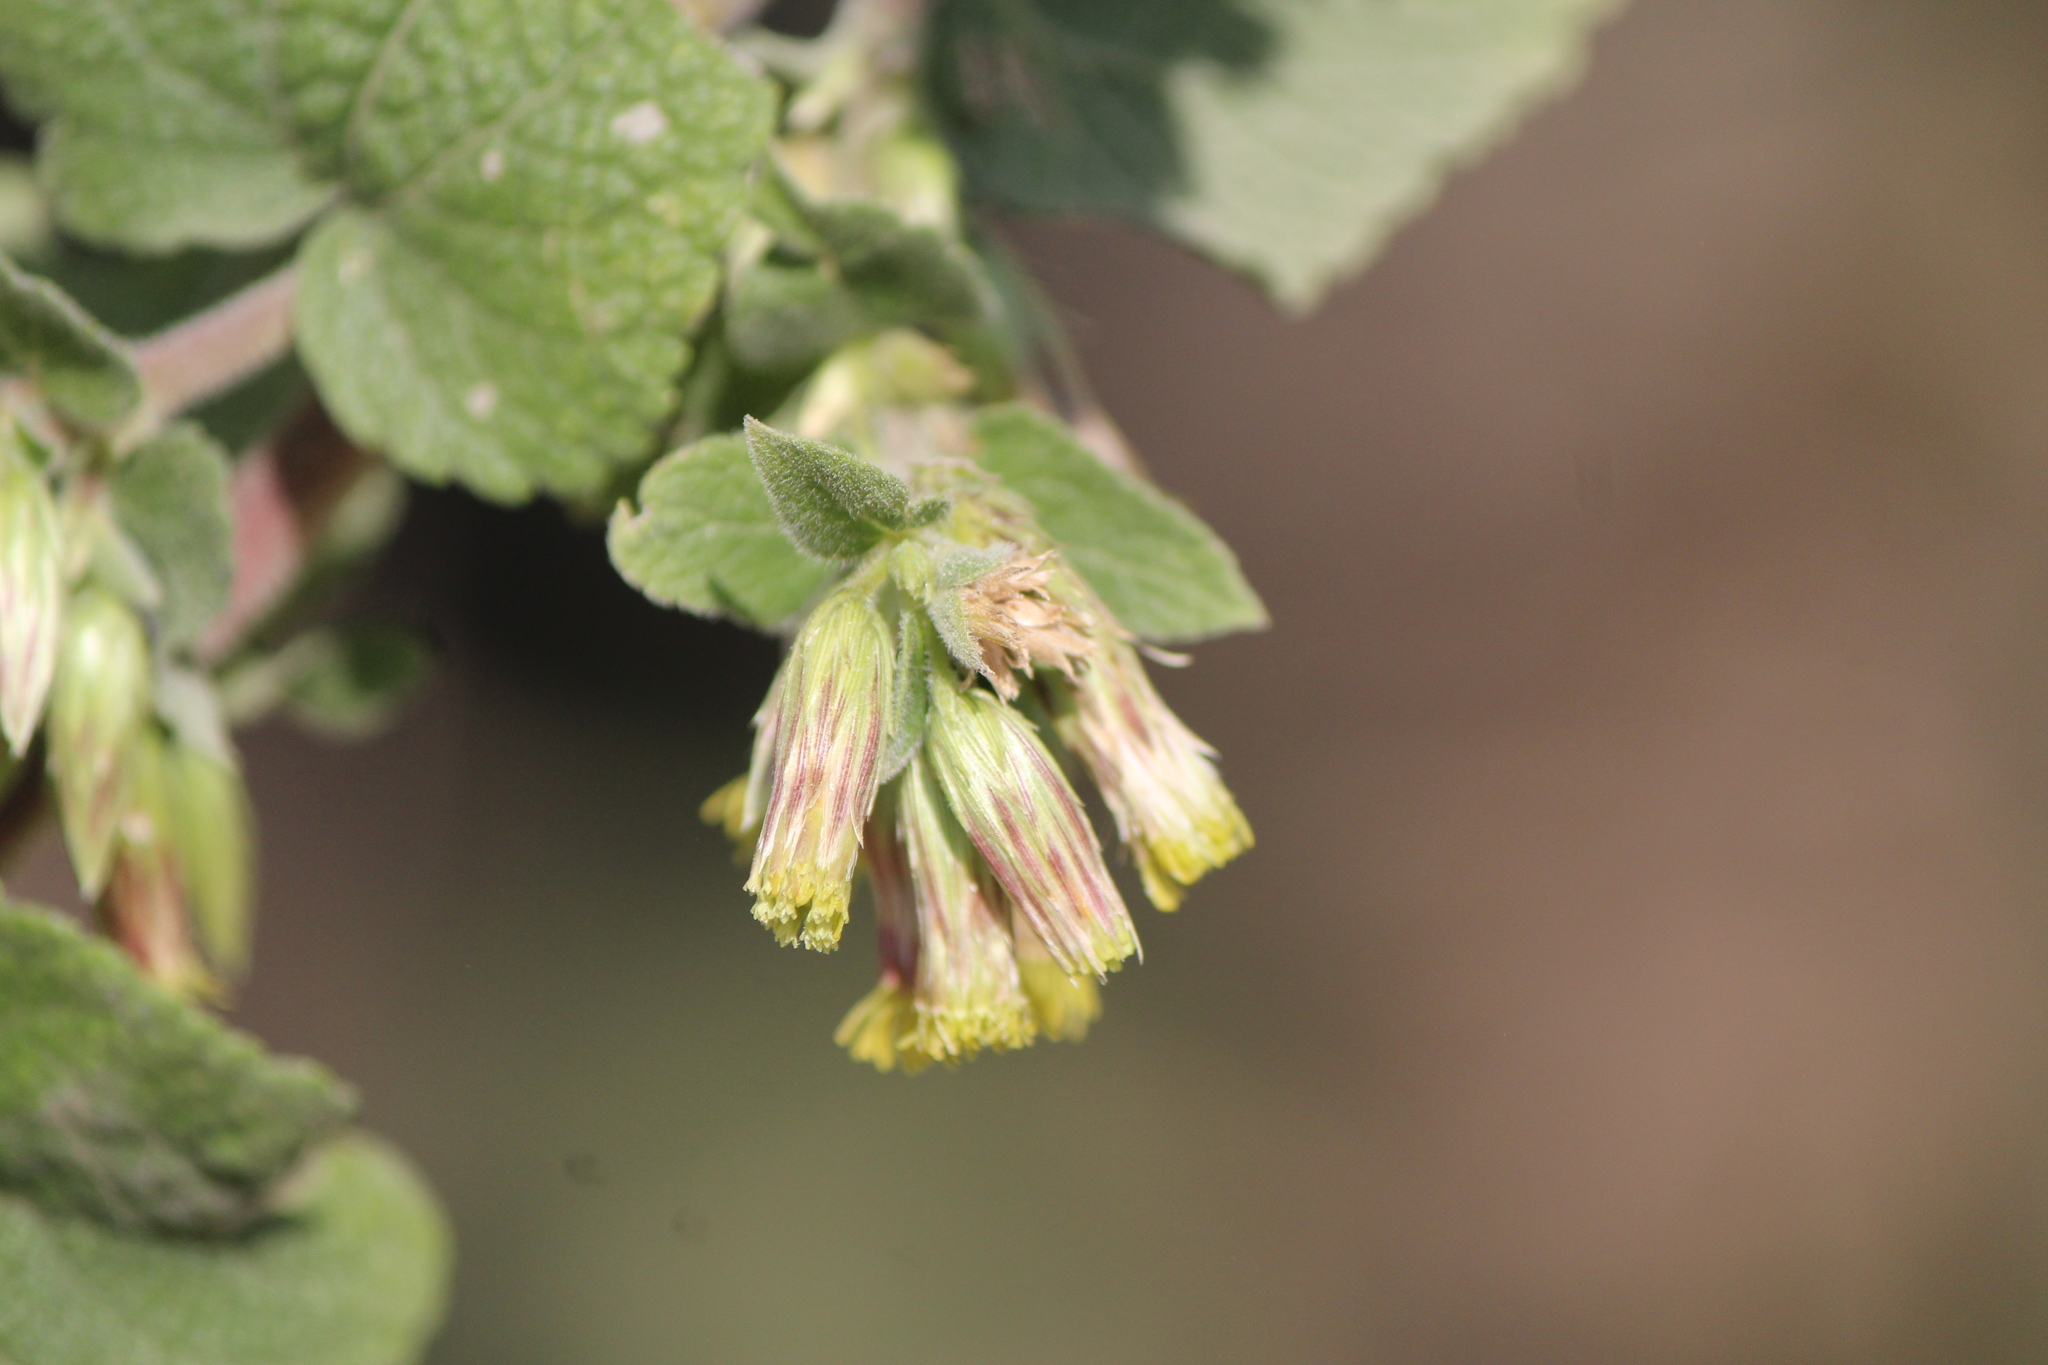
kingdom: Plantae
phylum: Tracheophyta
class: Magnoliopsida
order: Asterales
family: Asteraceae
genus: Brickellia
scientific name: Brickellia pendula
